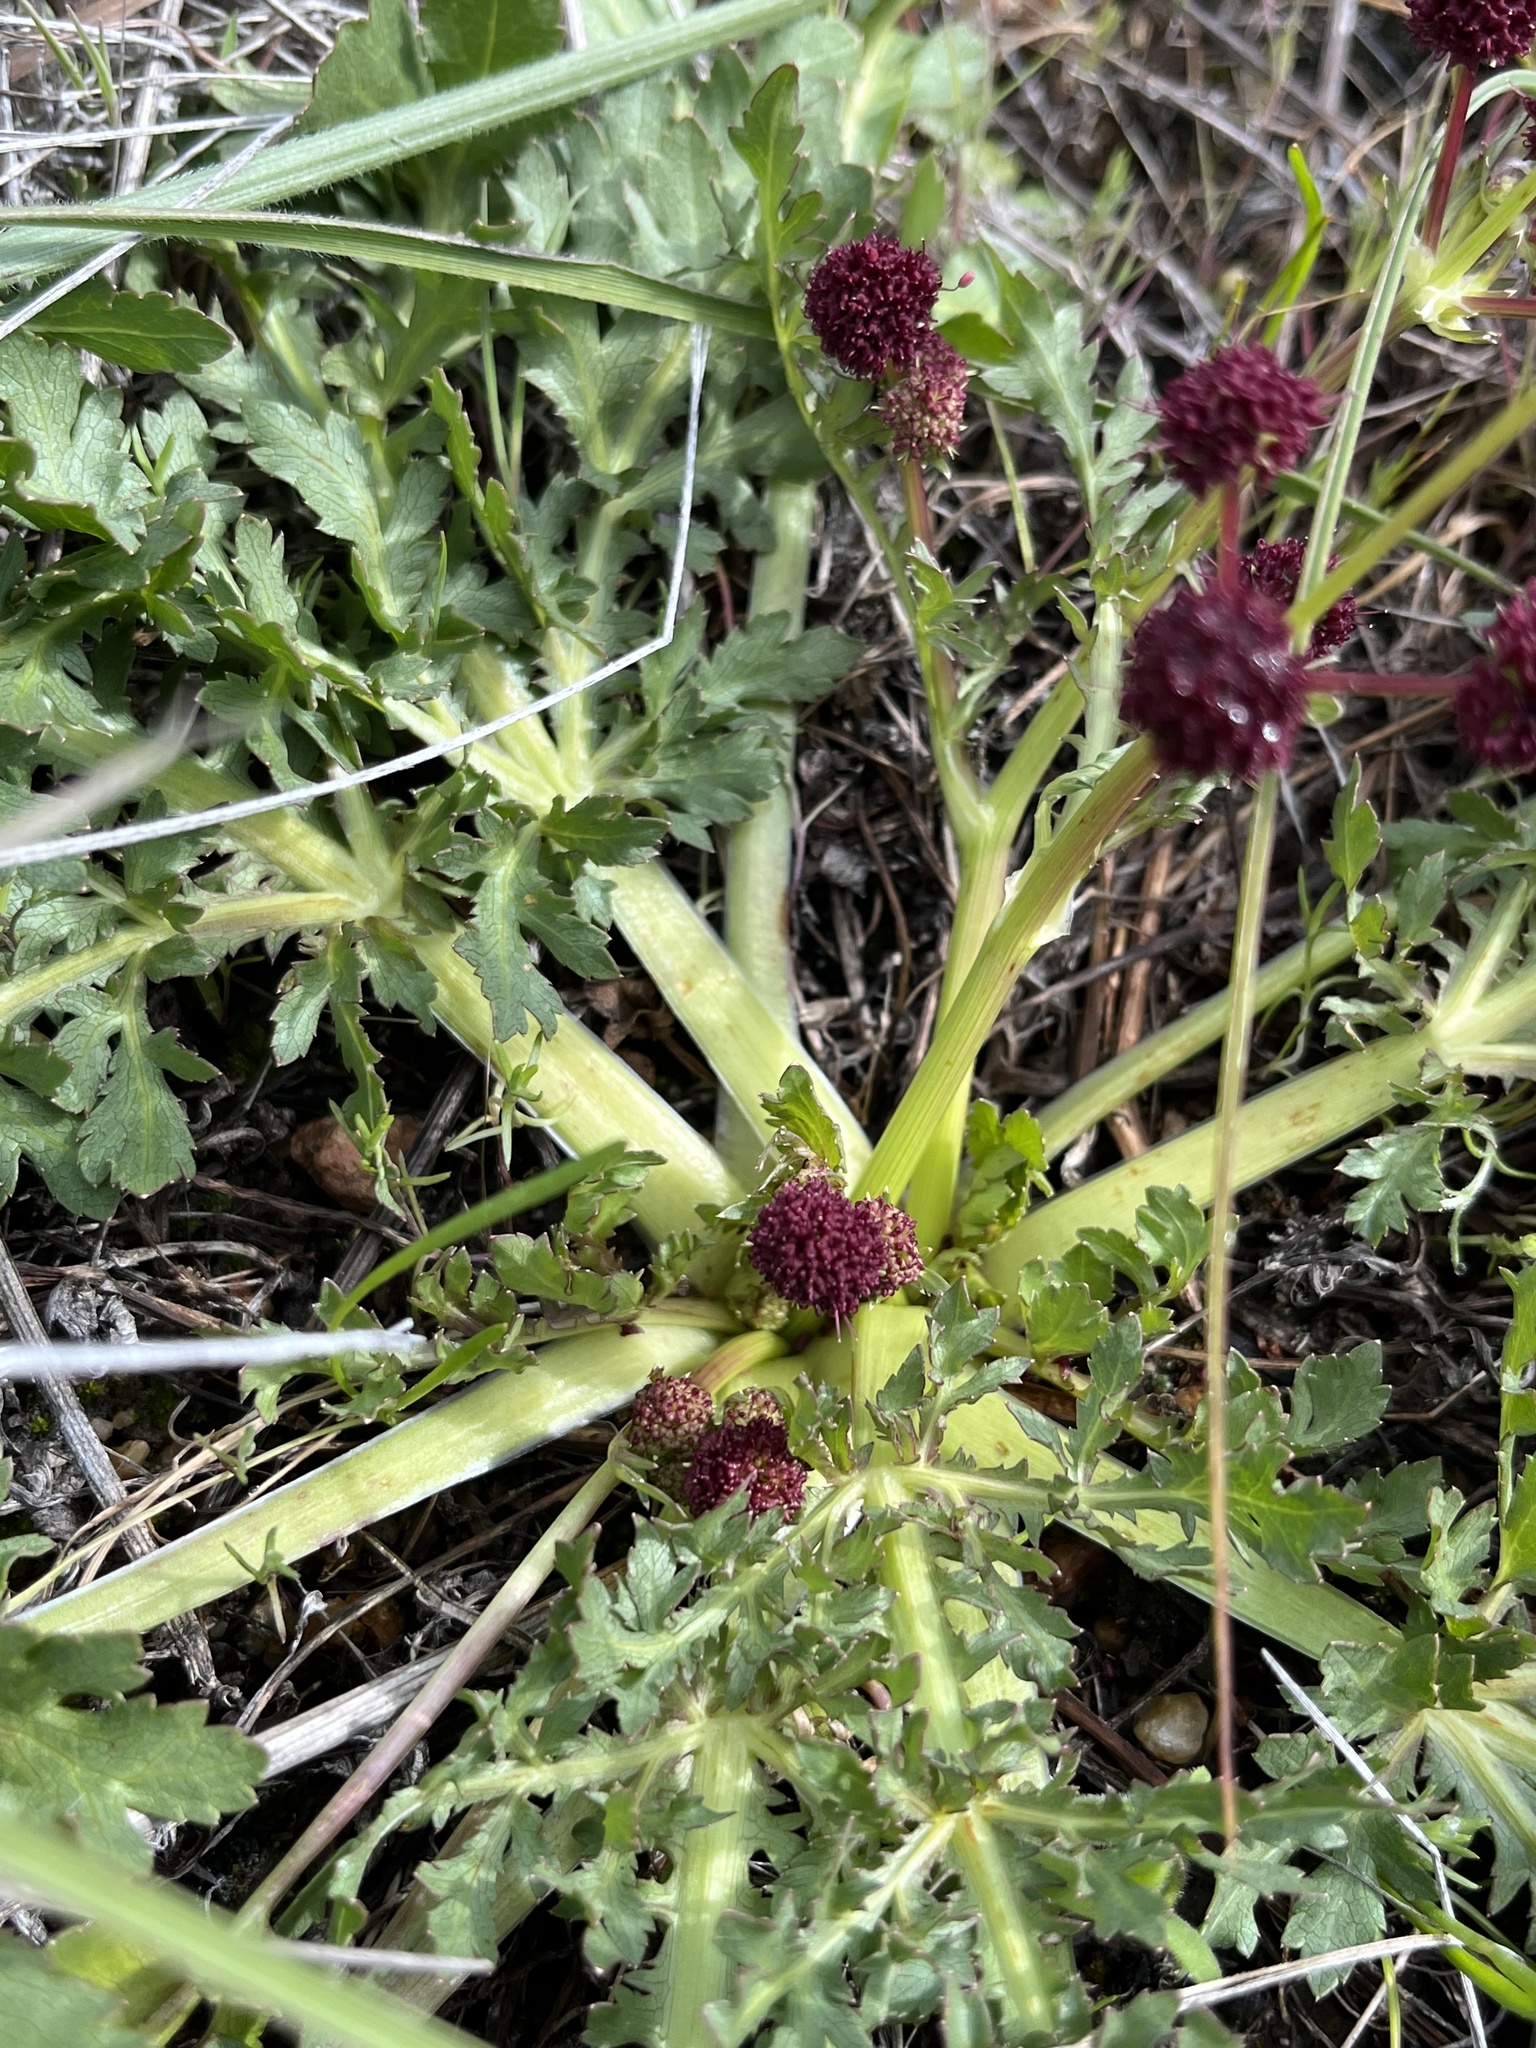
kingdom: Plantae
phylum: Tracheophyta
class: Magnoliopsida
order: Apiales
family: Apiaceae
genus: Sanicula
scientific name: Sanicula bipinnatifida
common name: Shoe-buttons
